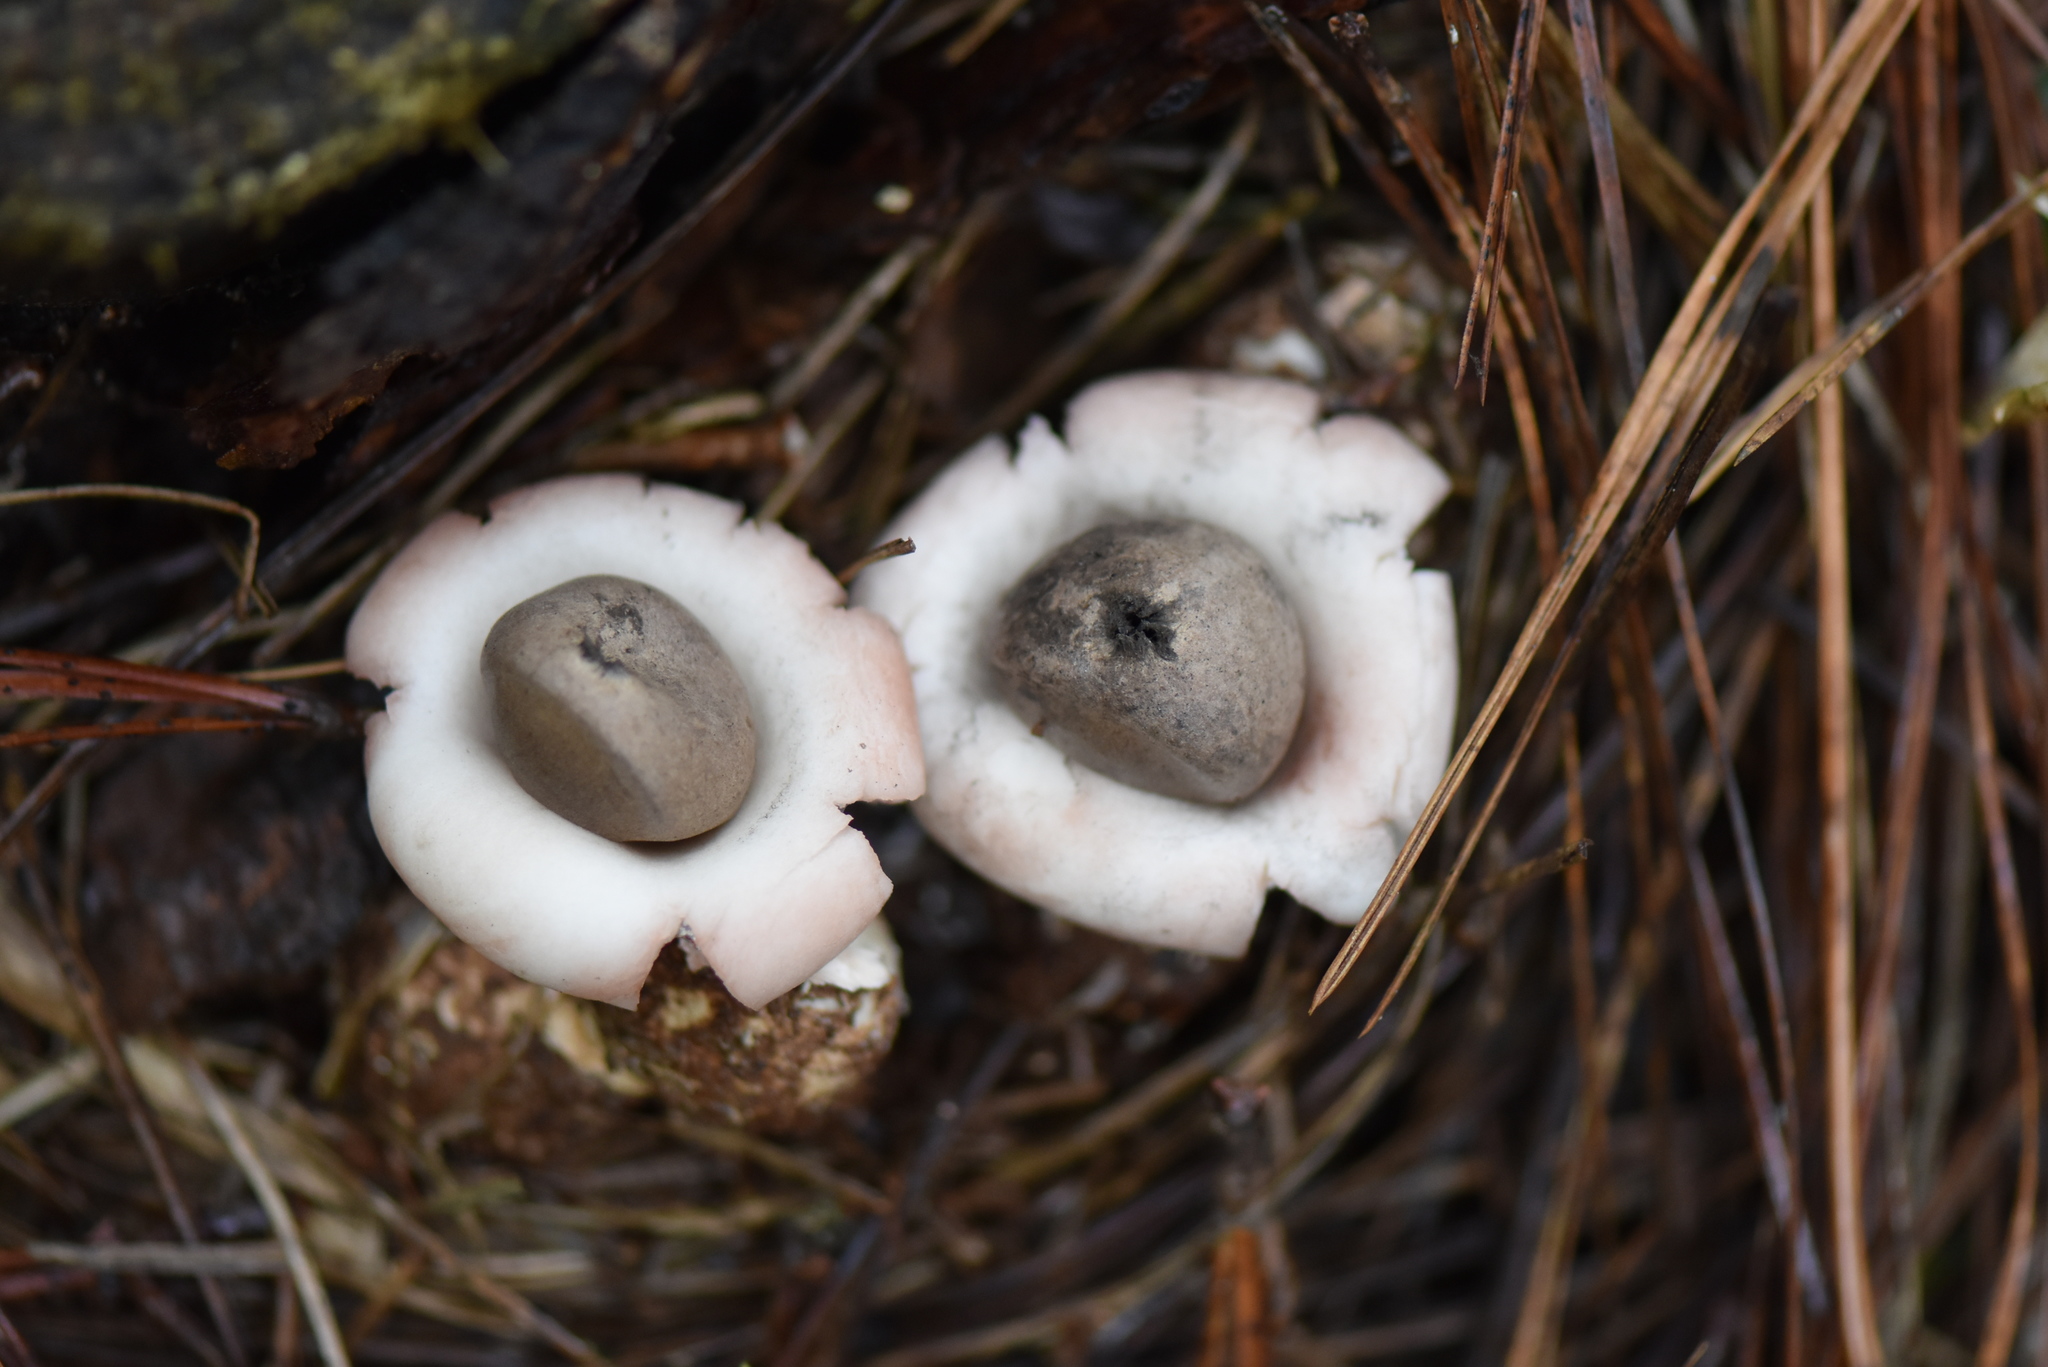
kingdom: Fungi
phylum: Basidiomycota
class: Agaricomycetes
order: Geastrales
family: Geastraceae
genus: Geastrum
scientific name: Geastrum saccatum
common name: Rounded earthstar
